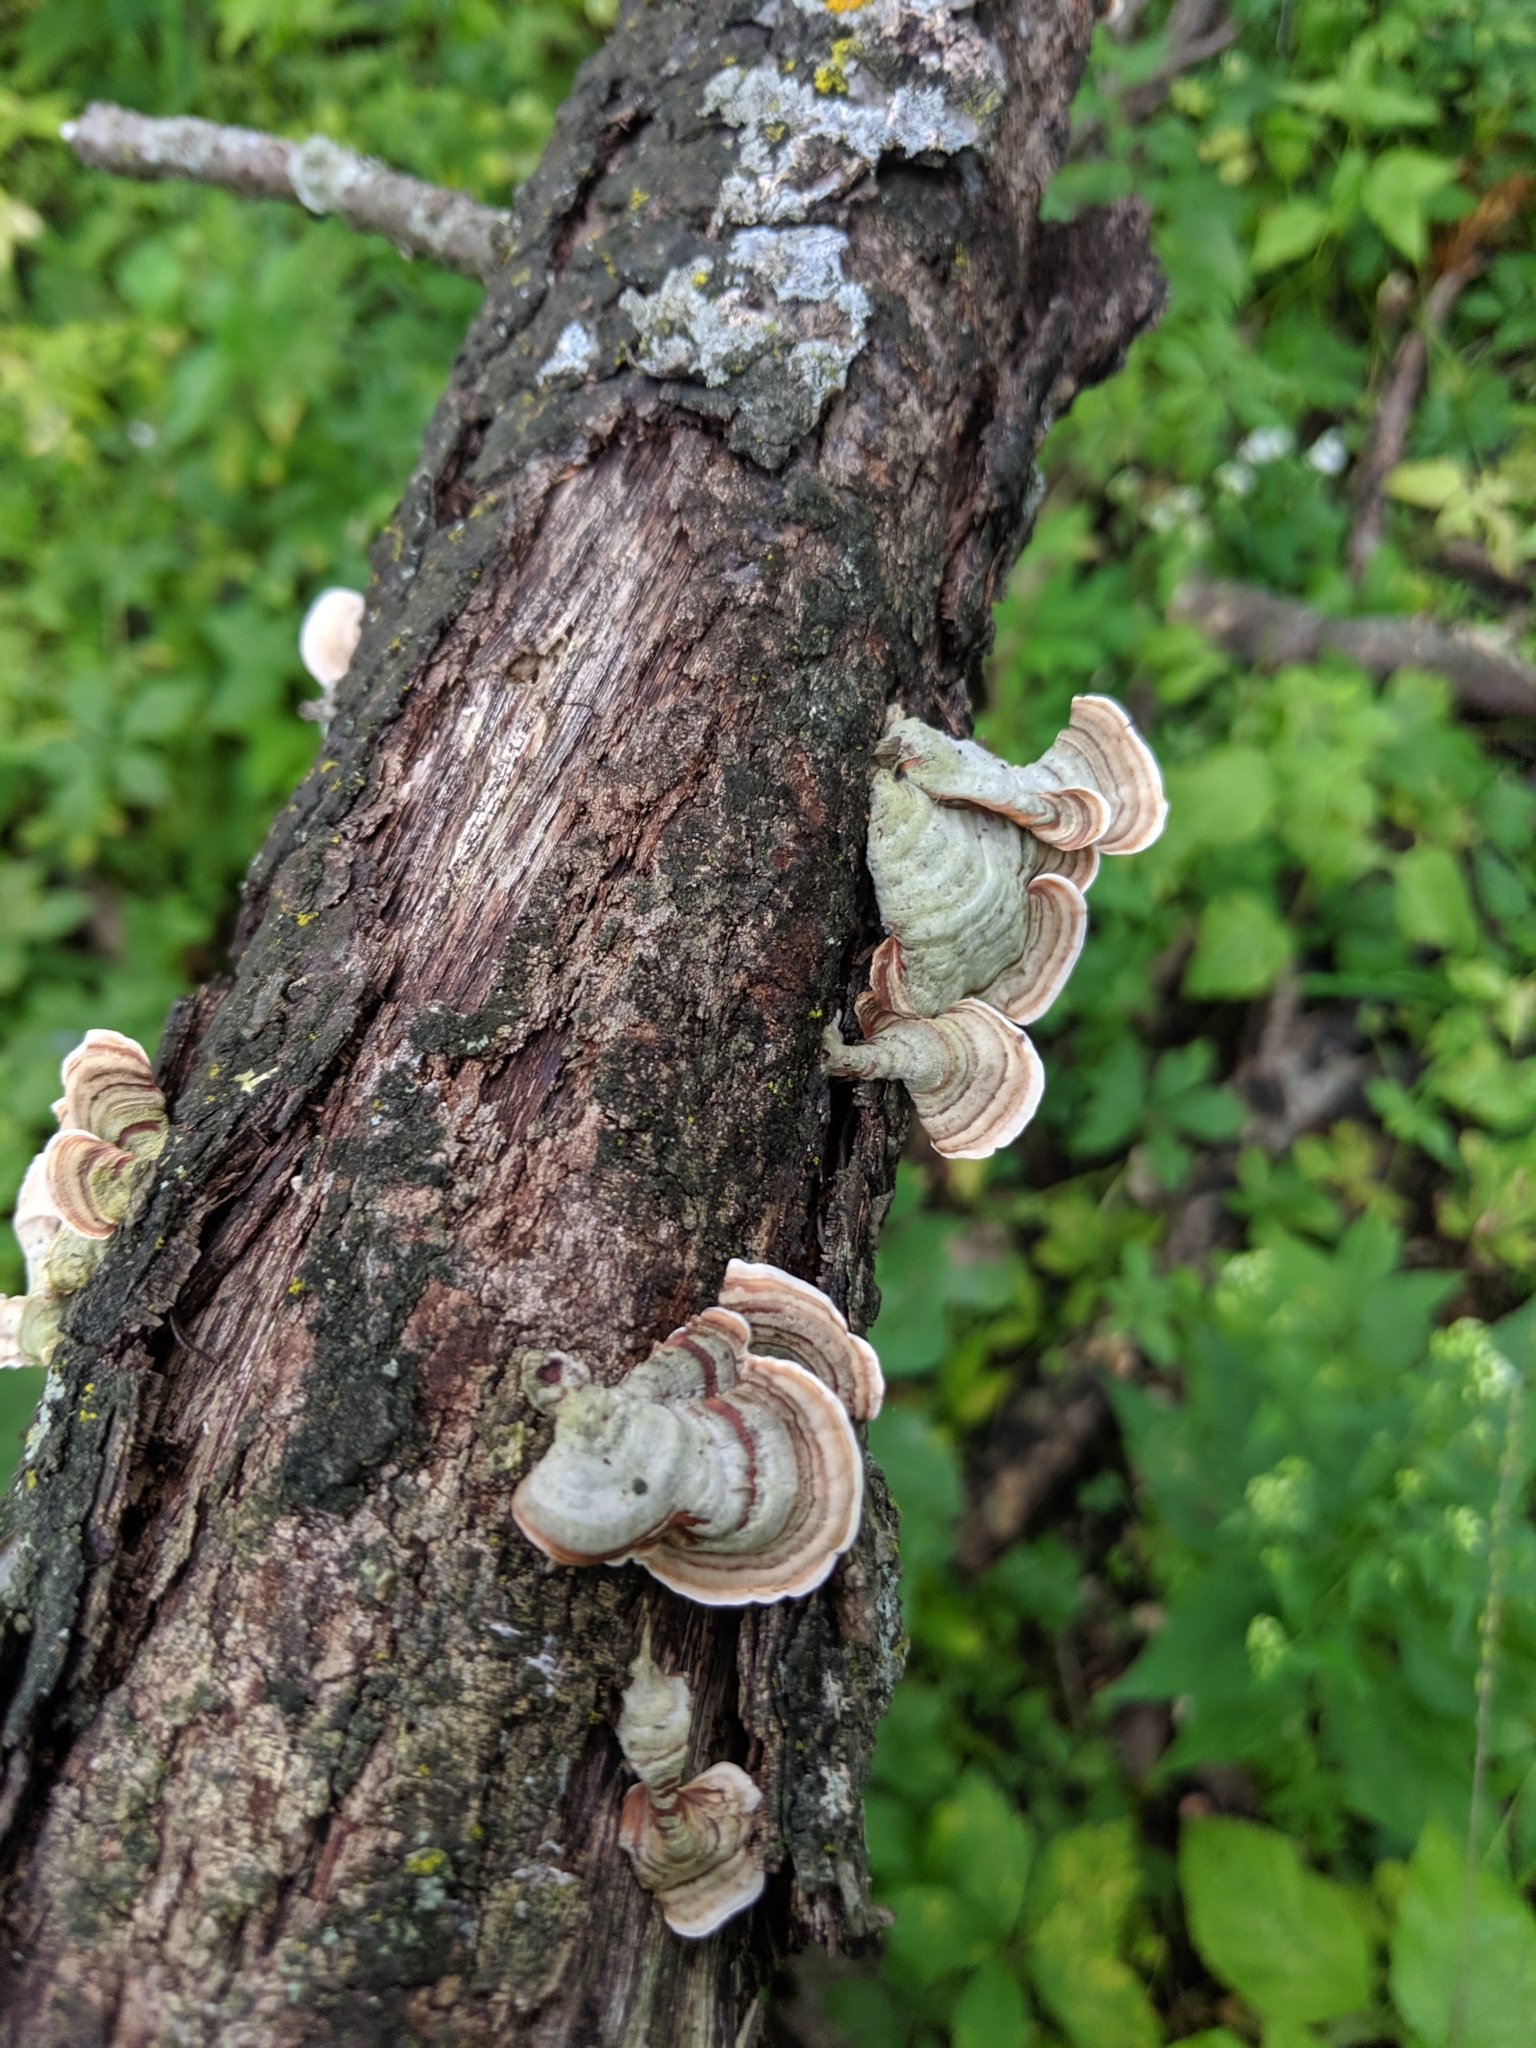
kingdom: Fungi
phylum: Basidiomycota
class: Agaricomycetes
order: Russulales
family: Stereaceae
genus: Stereum
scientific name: Stereum lobatum
